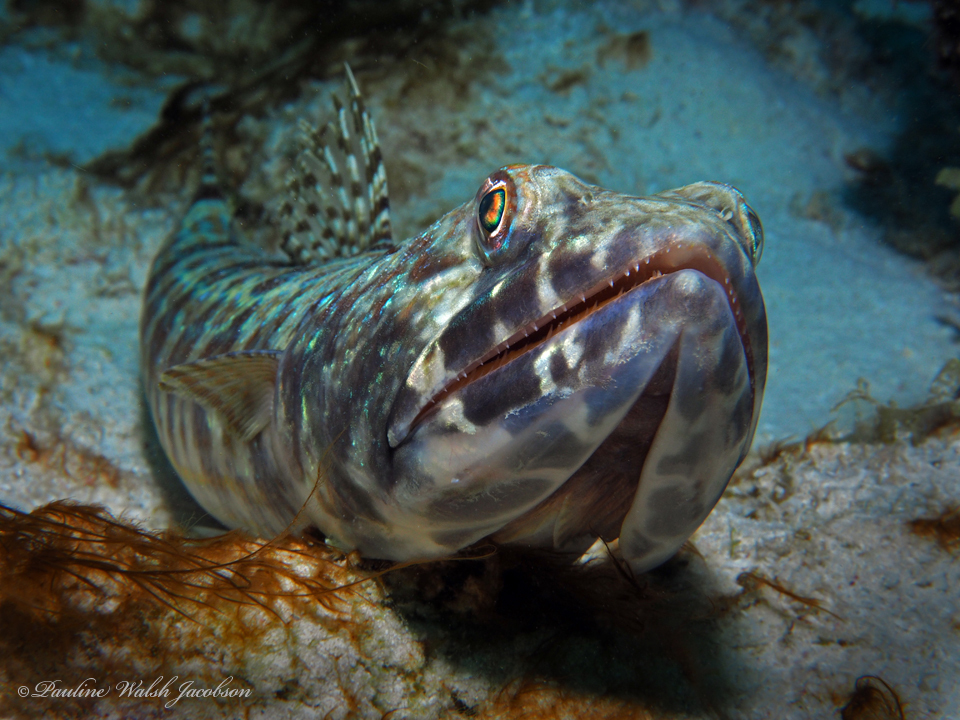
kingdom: Animalia
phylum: Chordata
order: Aulopiformes
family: Synodontidae
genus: Synodus
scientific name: Synodus intermedius
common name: Sand diver
